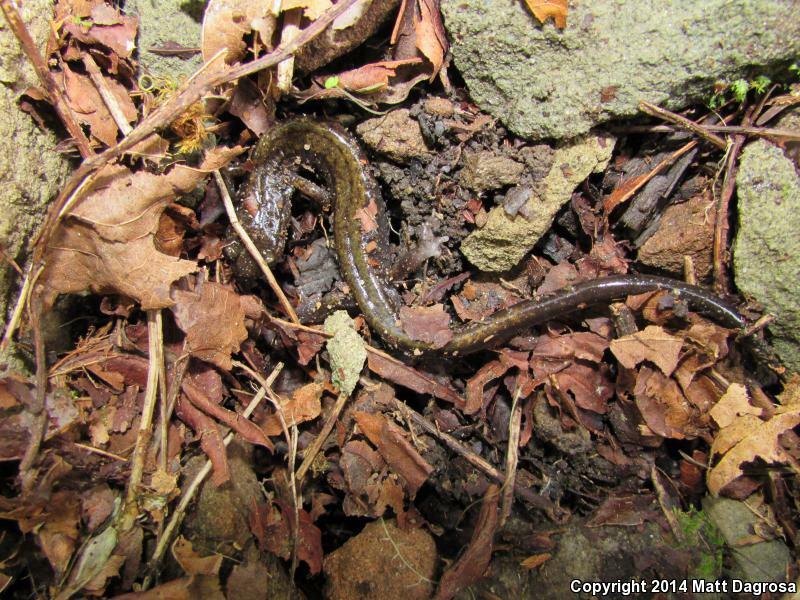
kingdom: Animalia
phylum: Chordata
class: Amphibia
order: Caudata
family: Plethodontidae
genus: Plethodon
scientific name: Plethodon dunni
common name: Dunn's salamander
